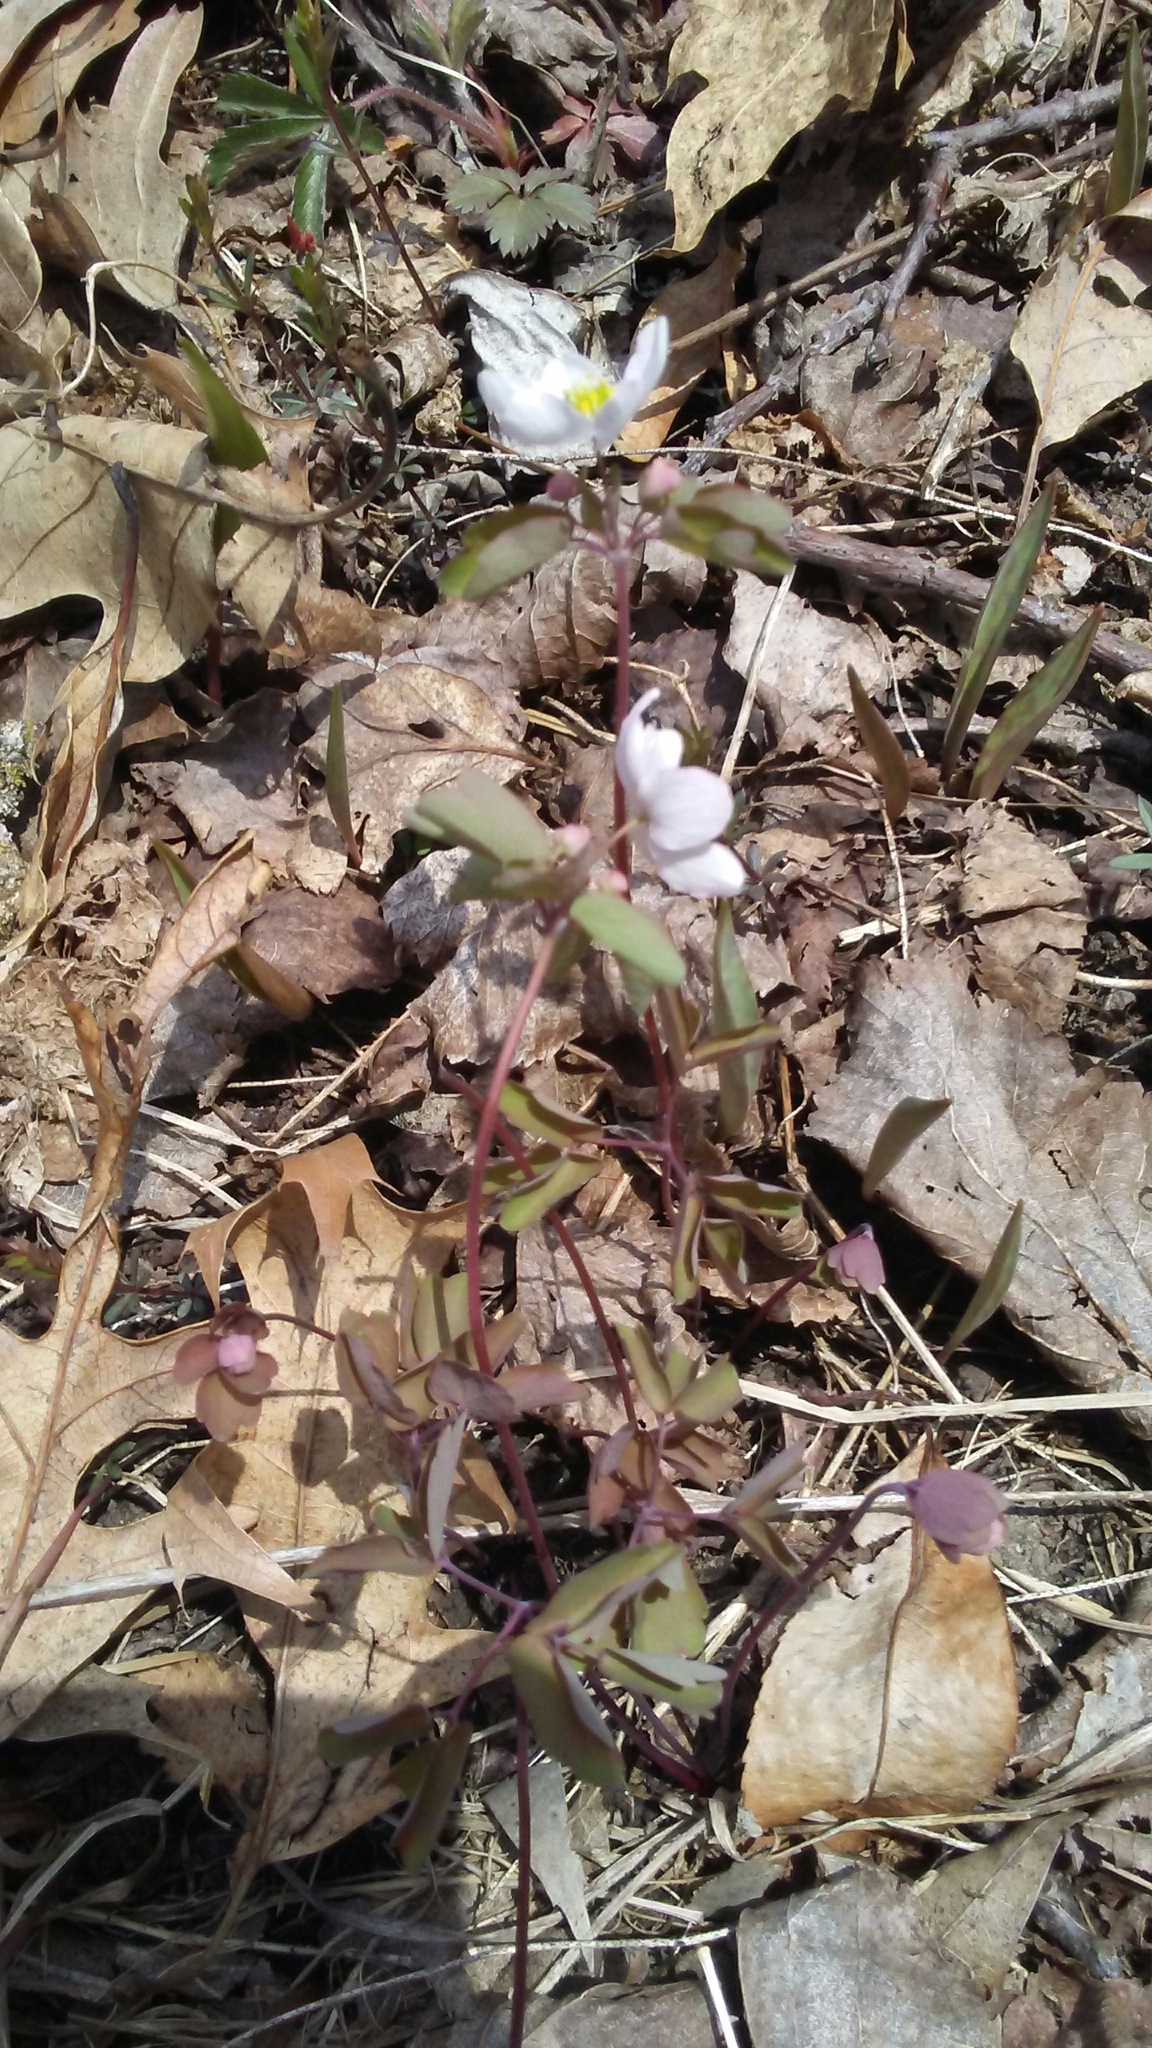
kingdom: Plantae
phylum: Tracheophyta
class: Magnoliopsida
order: Ranunculales
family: Ranunculaceae
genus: Thalictrum
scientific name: Thalictrum thalictroides
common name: Rue-anemone
